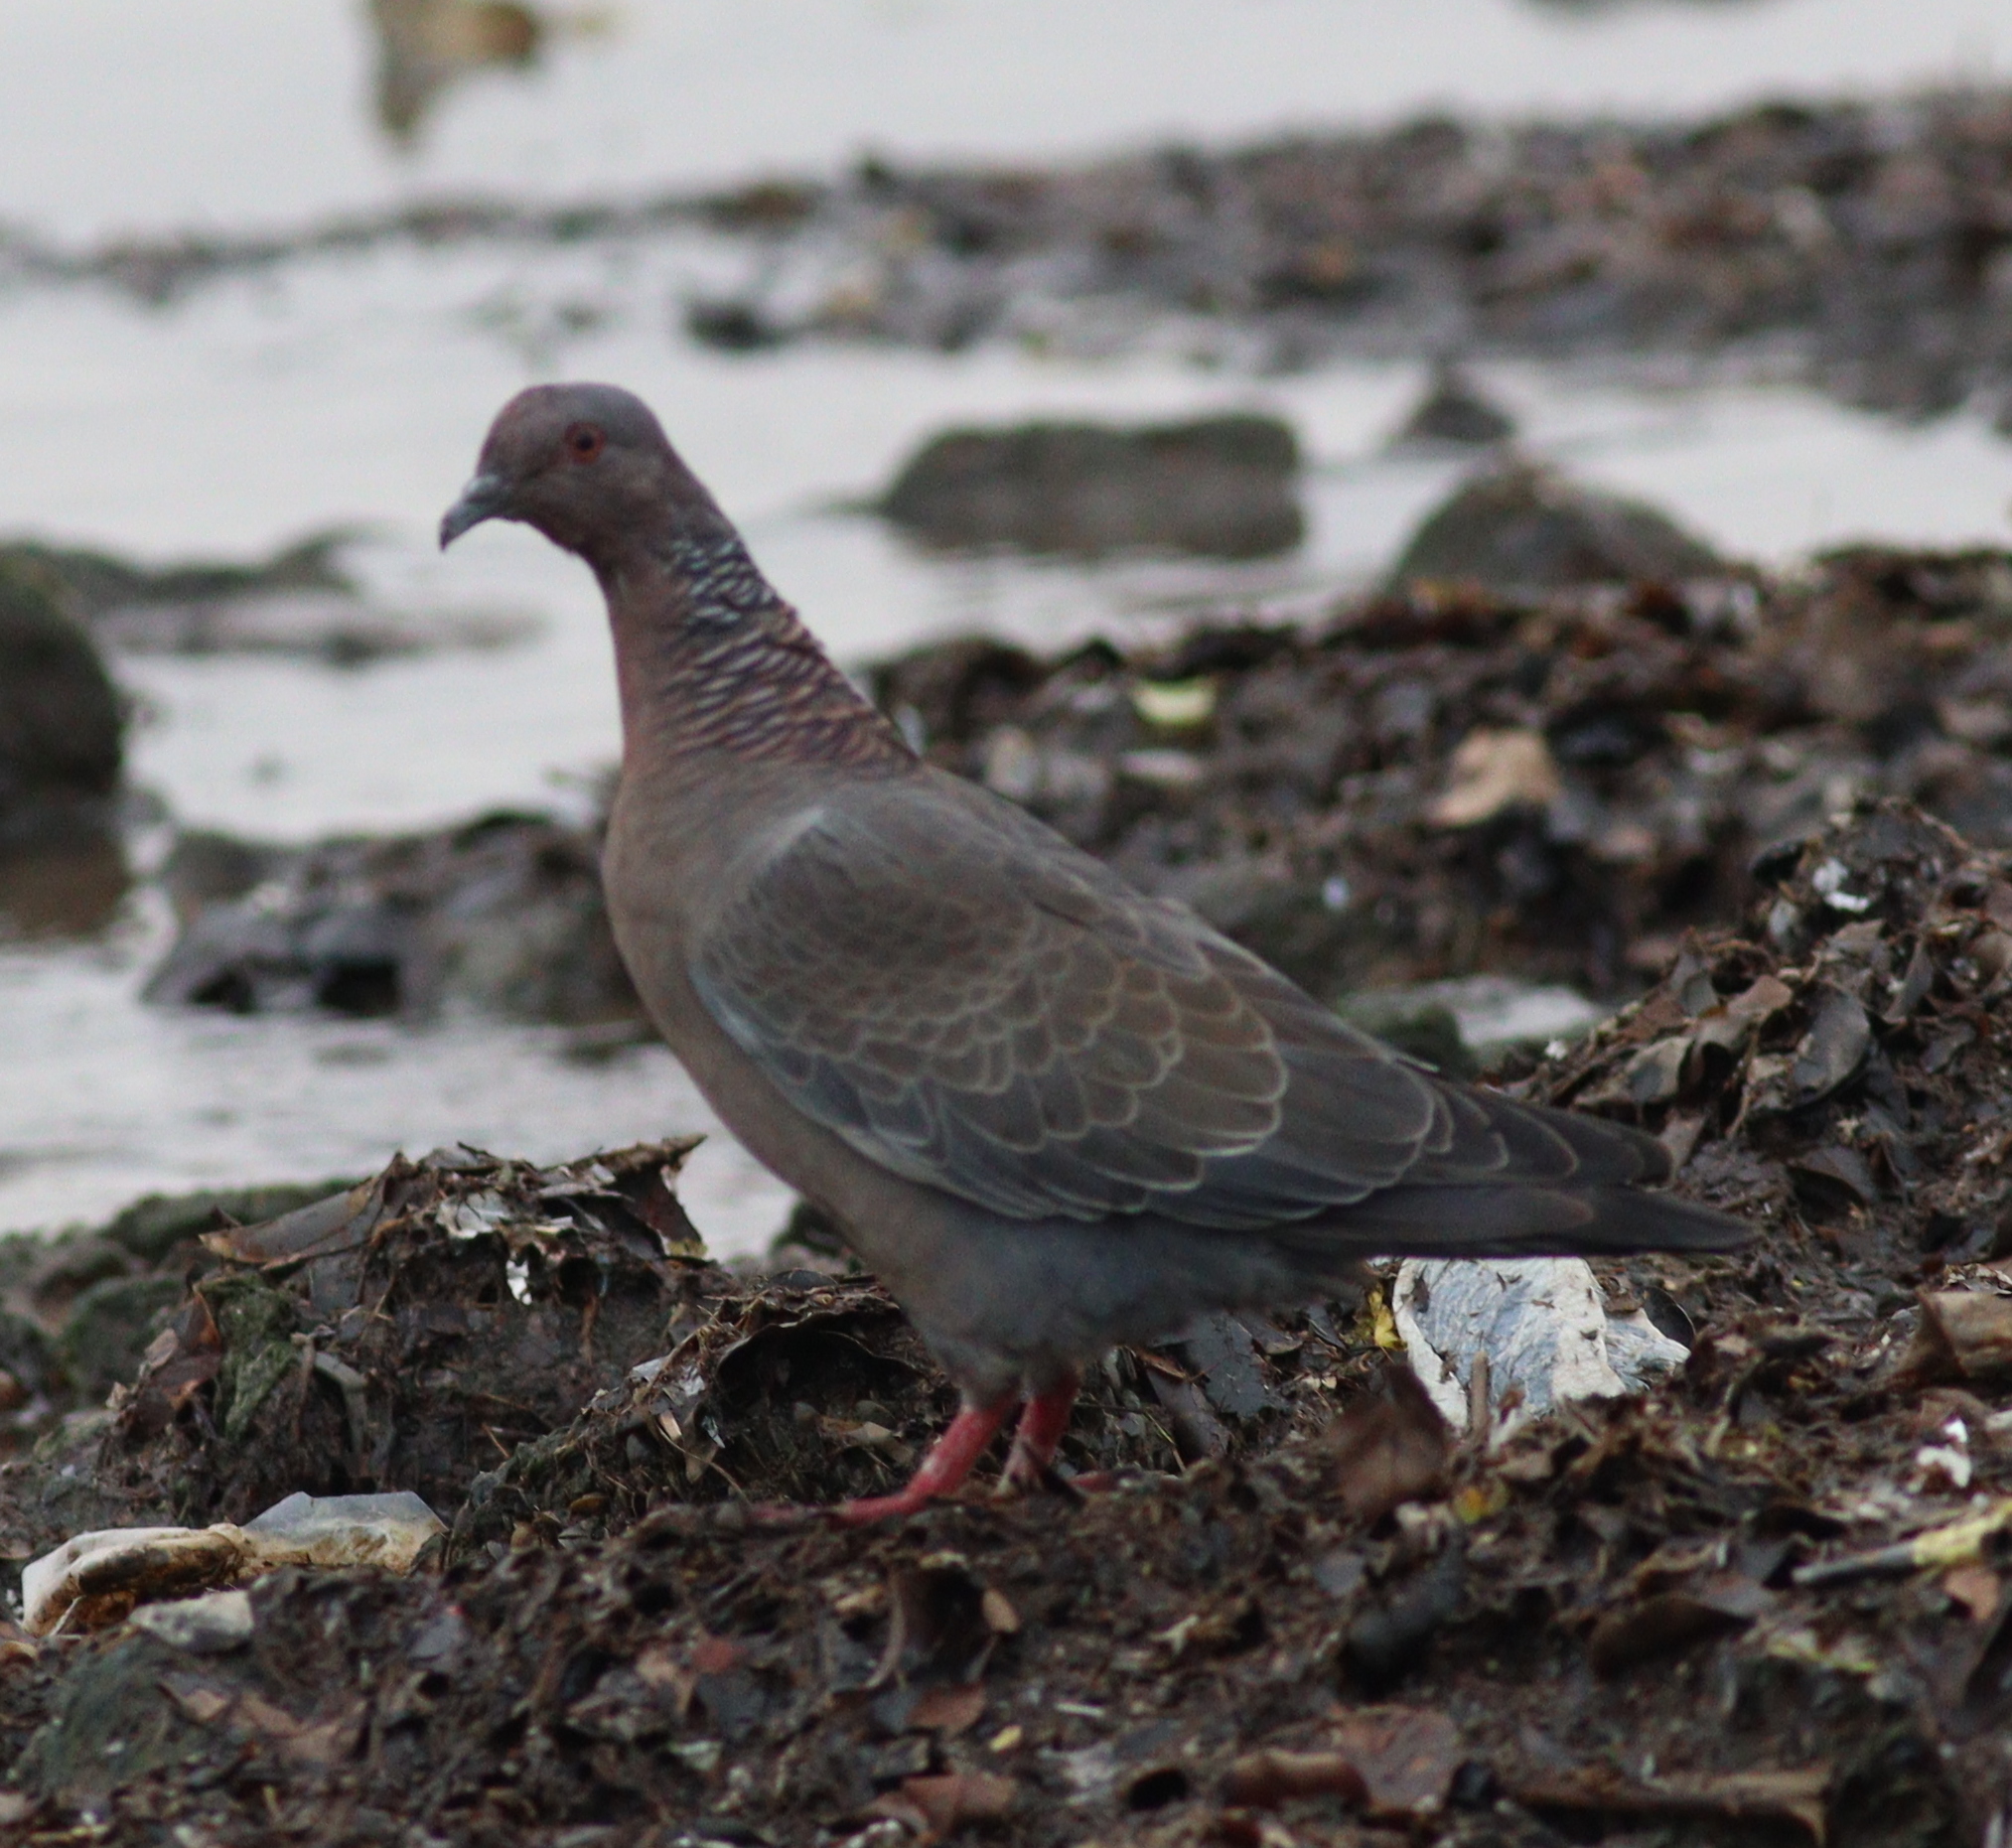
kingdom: Animalia
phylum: Chordata
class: Aves
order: Columbiformes
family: Columbidae
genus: Patagioenas
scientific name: Patagioenas picazuro
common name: Picazuro pigeon
